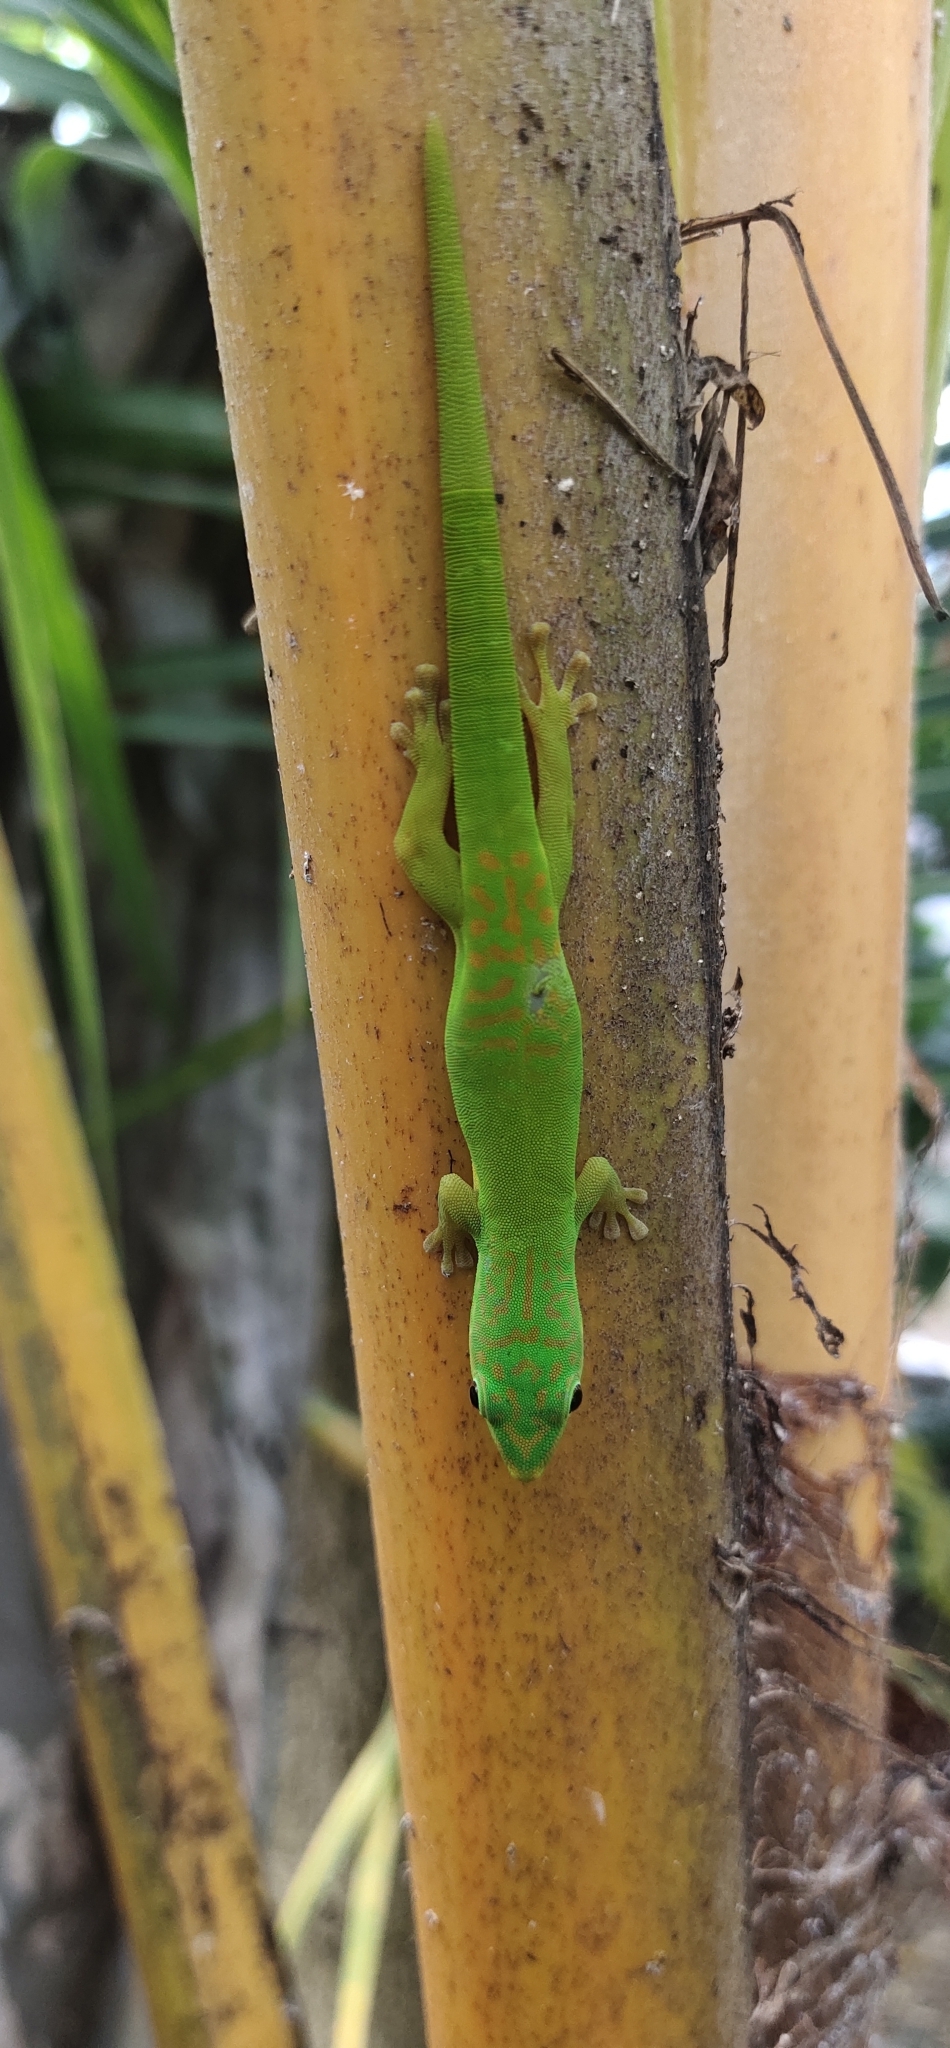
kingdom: Animalia
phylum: Chordata
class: Squamata
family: Gekkonidae
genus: Phelsuma
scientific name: Phelsuma andamanensis
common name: Andaman day gecko
